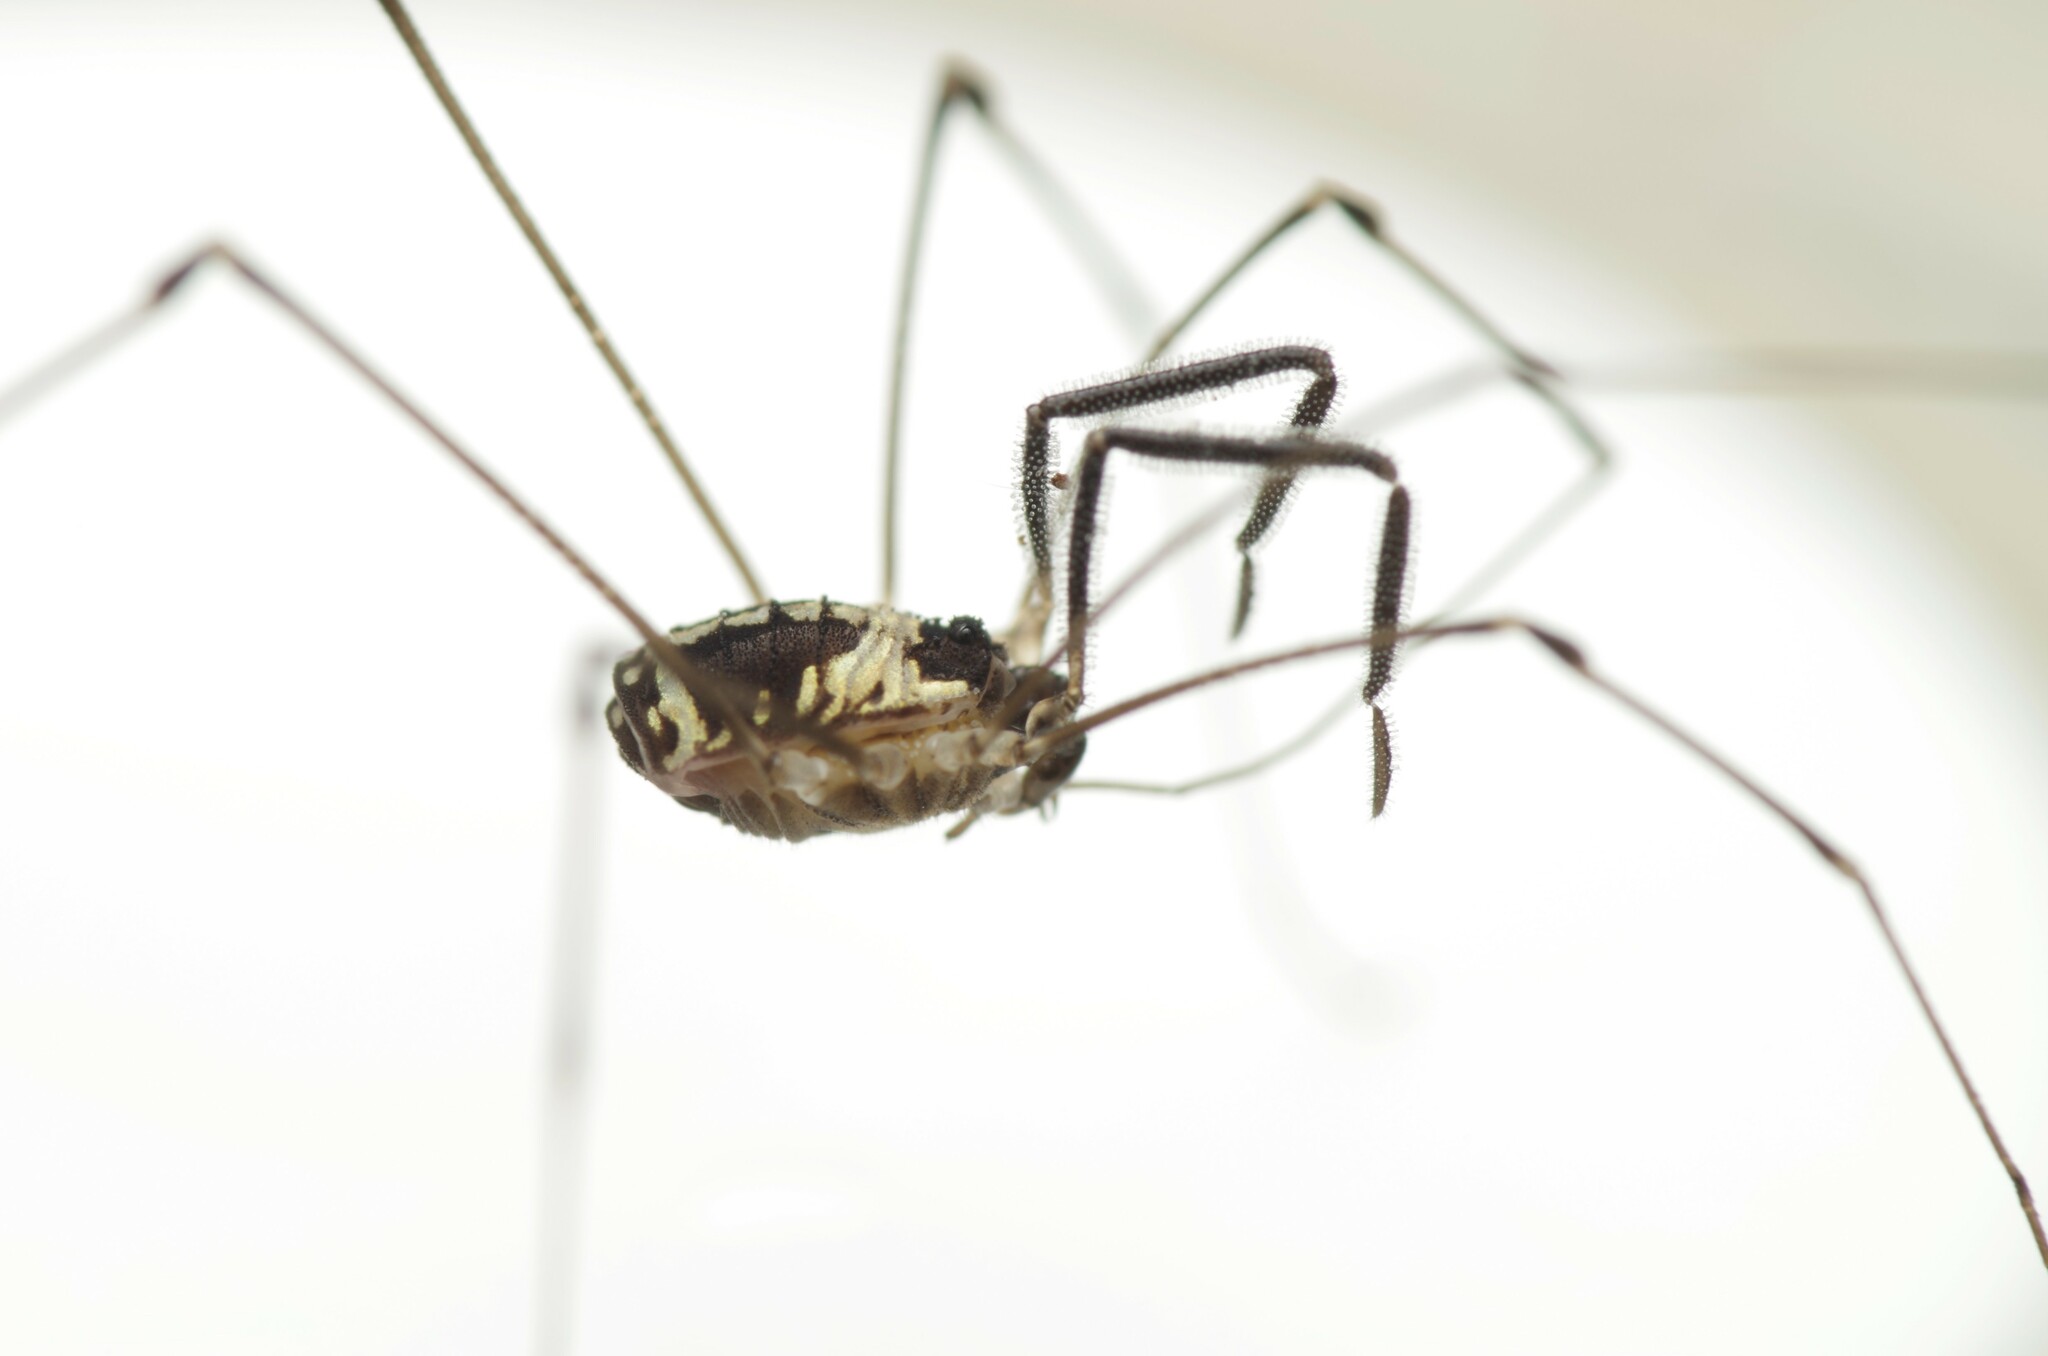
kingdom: Animalia
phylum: Arthropoda
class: Arachnida
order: Opiliones
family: Nemastomatidae
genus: Mitostoma
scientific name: Mitostoma pyrenaeum
